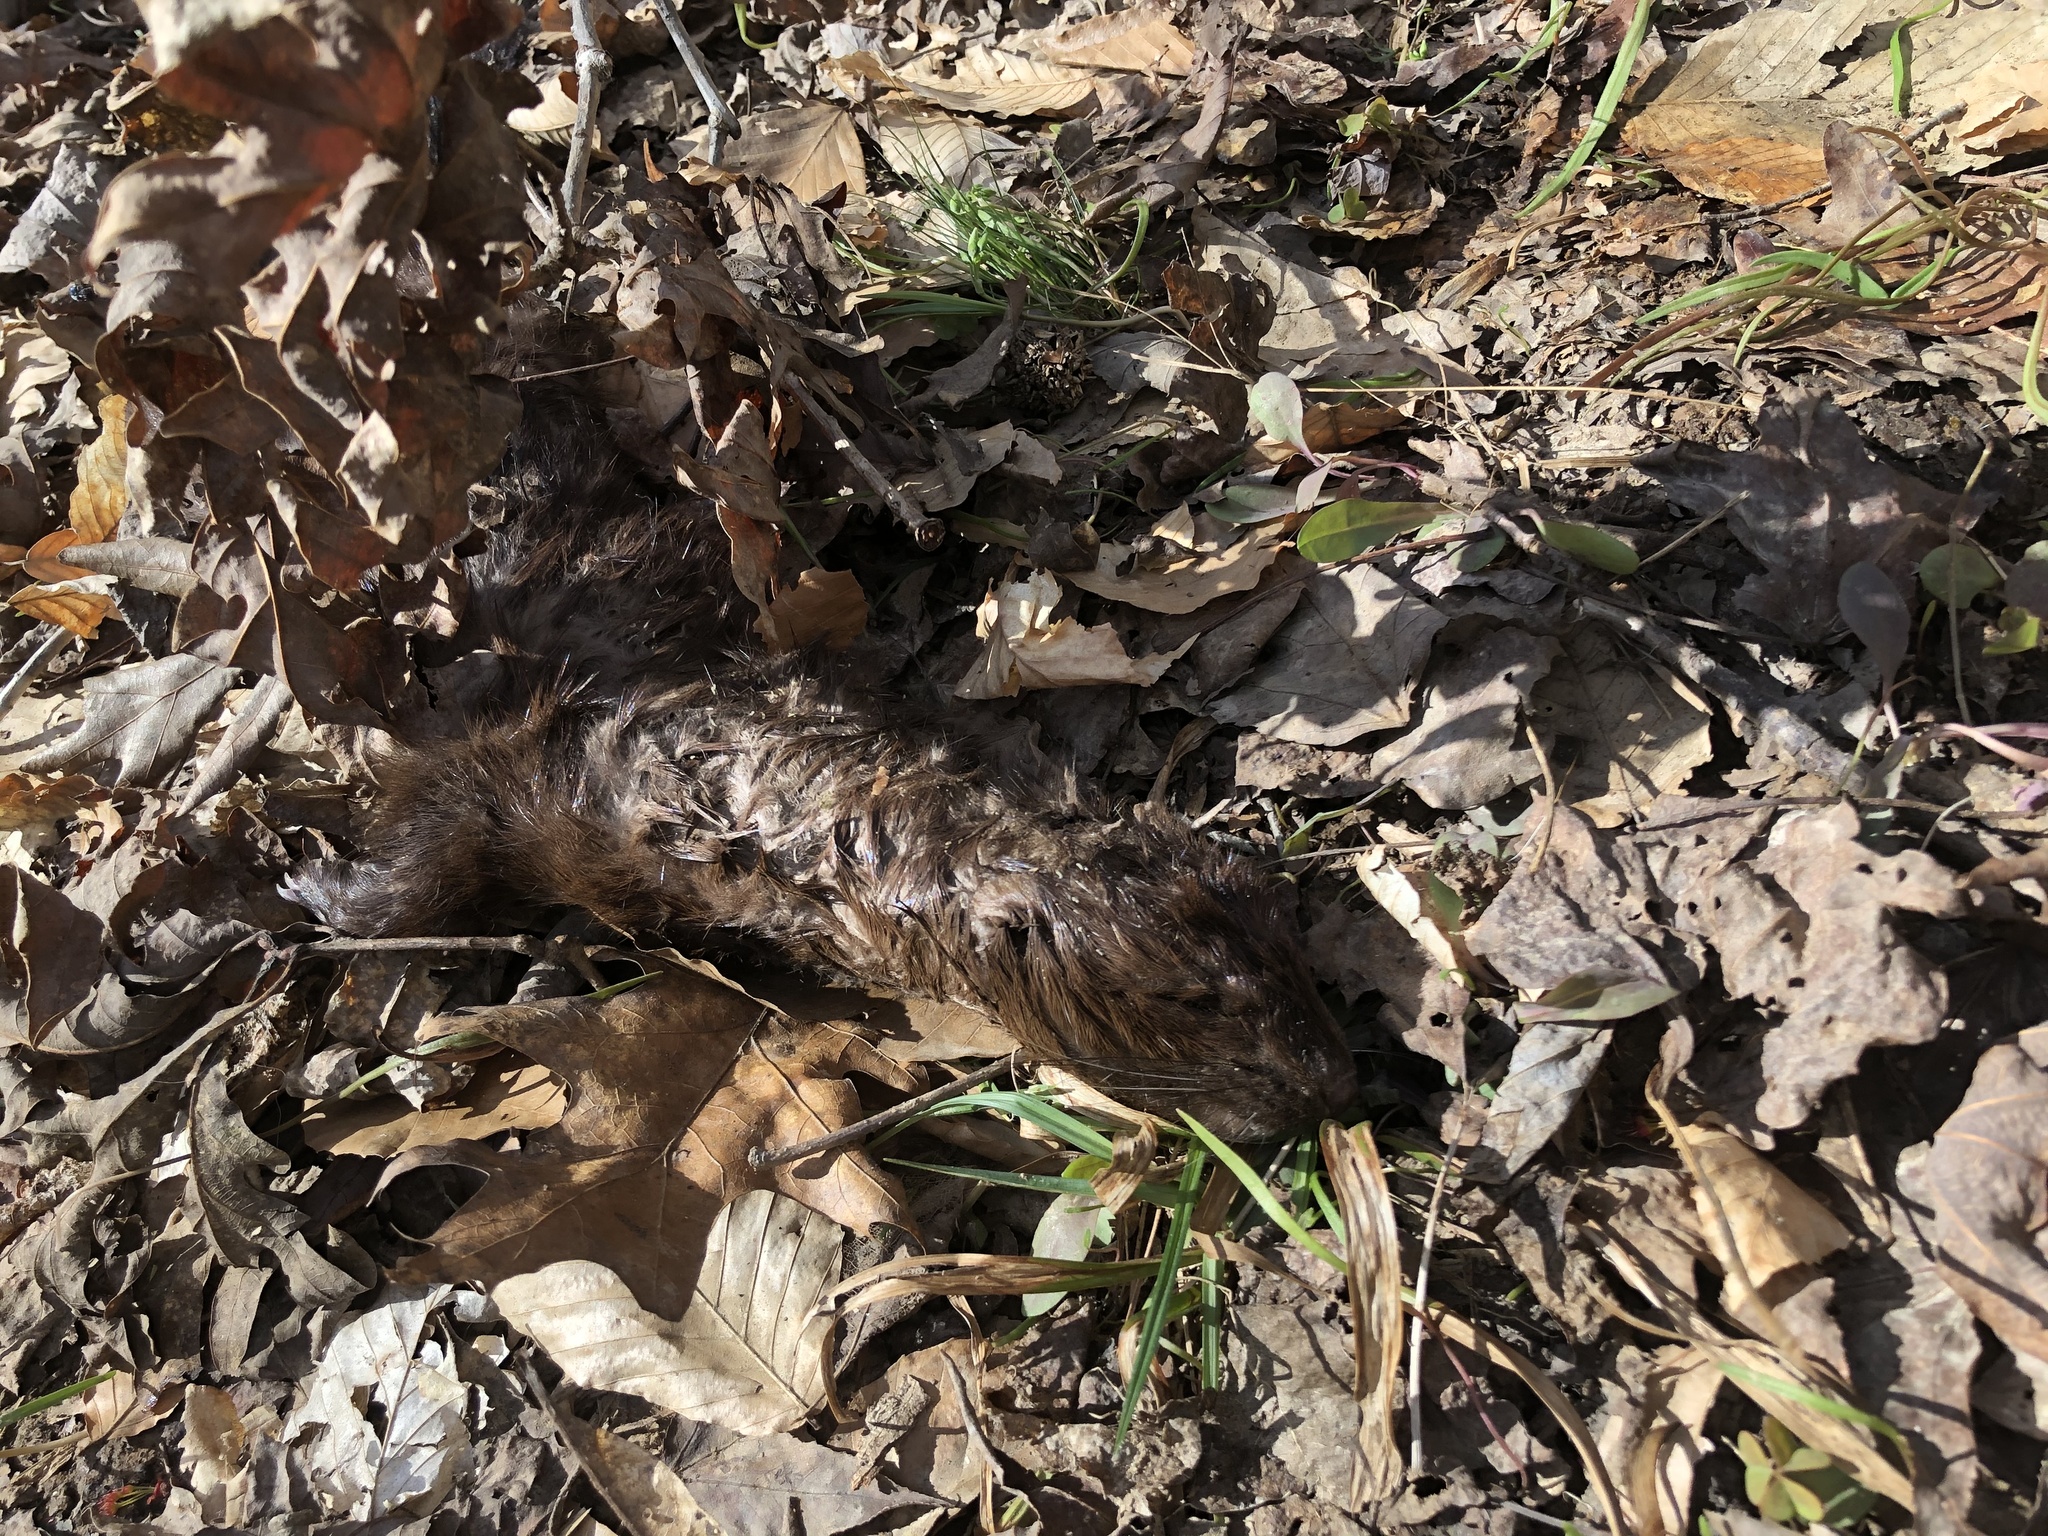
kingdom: Animalia
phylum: Chordata
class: Mammalia
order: Carnivora
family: Mustelidae
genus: Mustela
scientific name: Mustela
